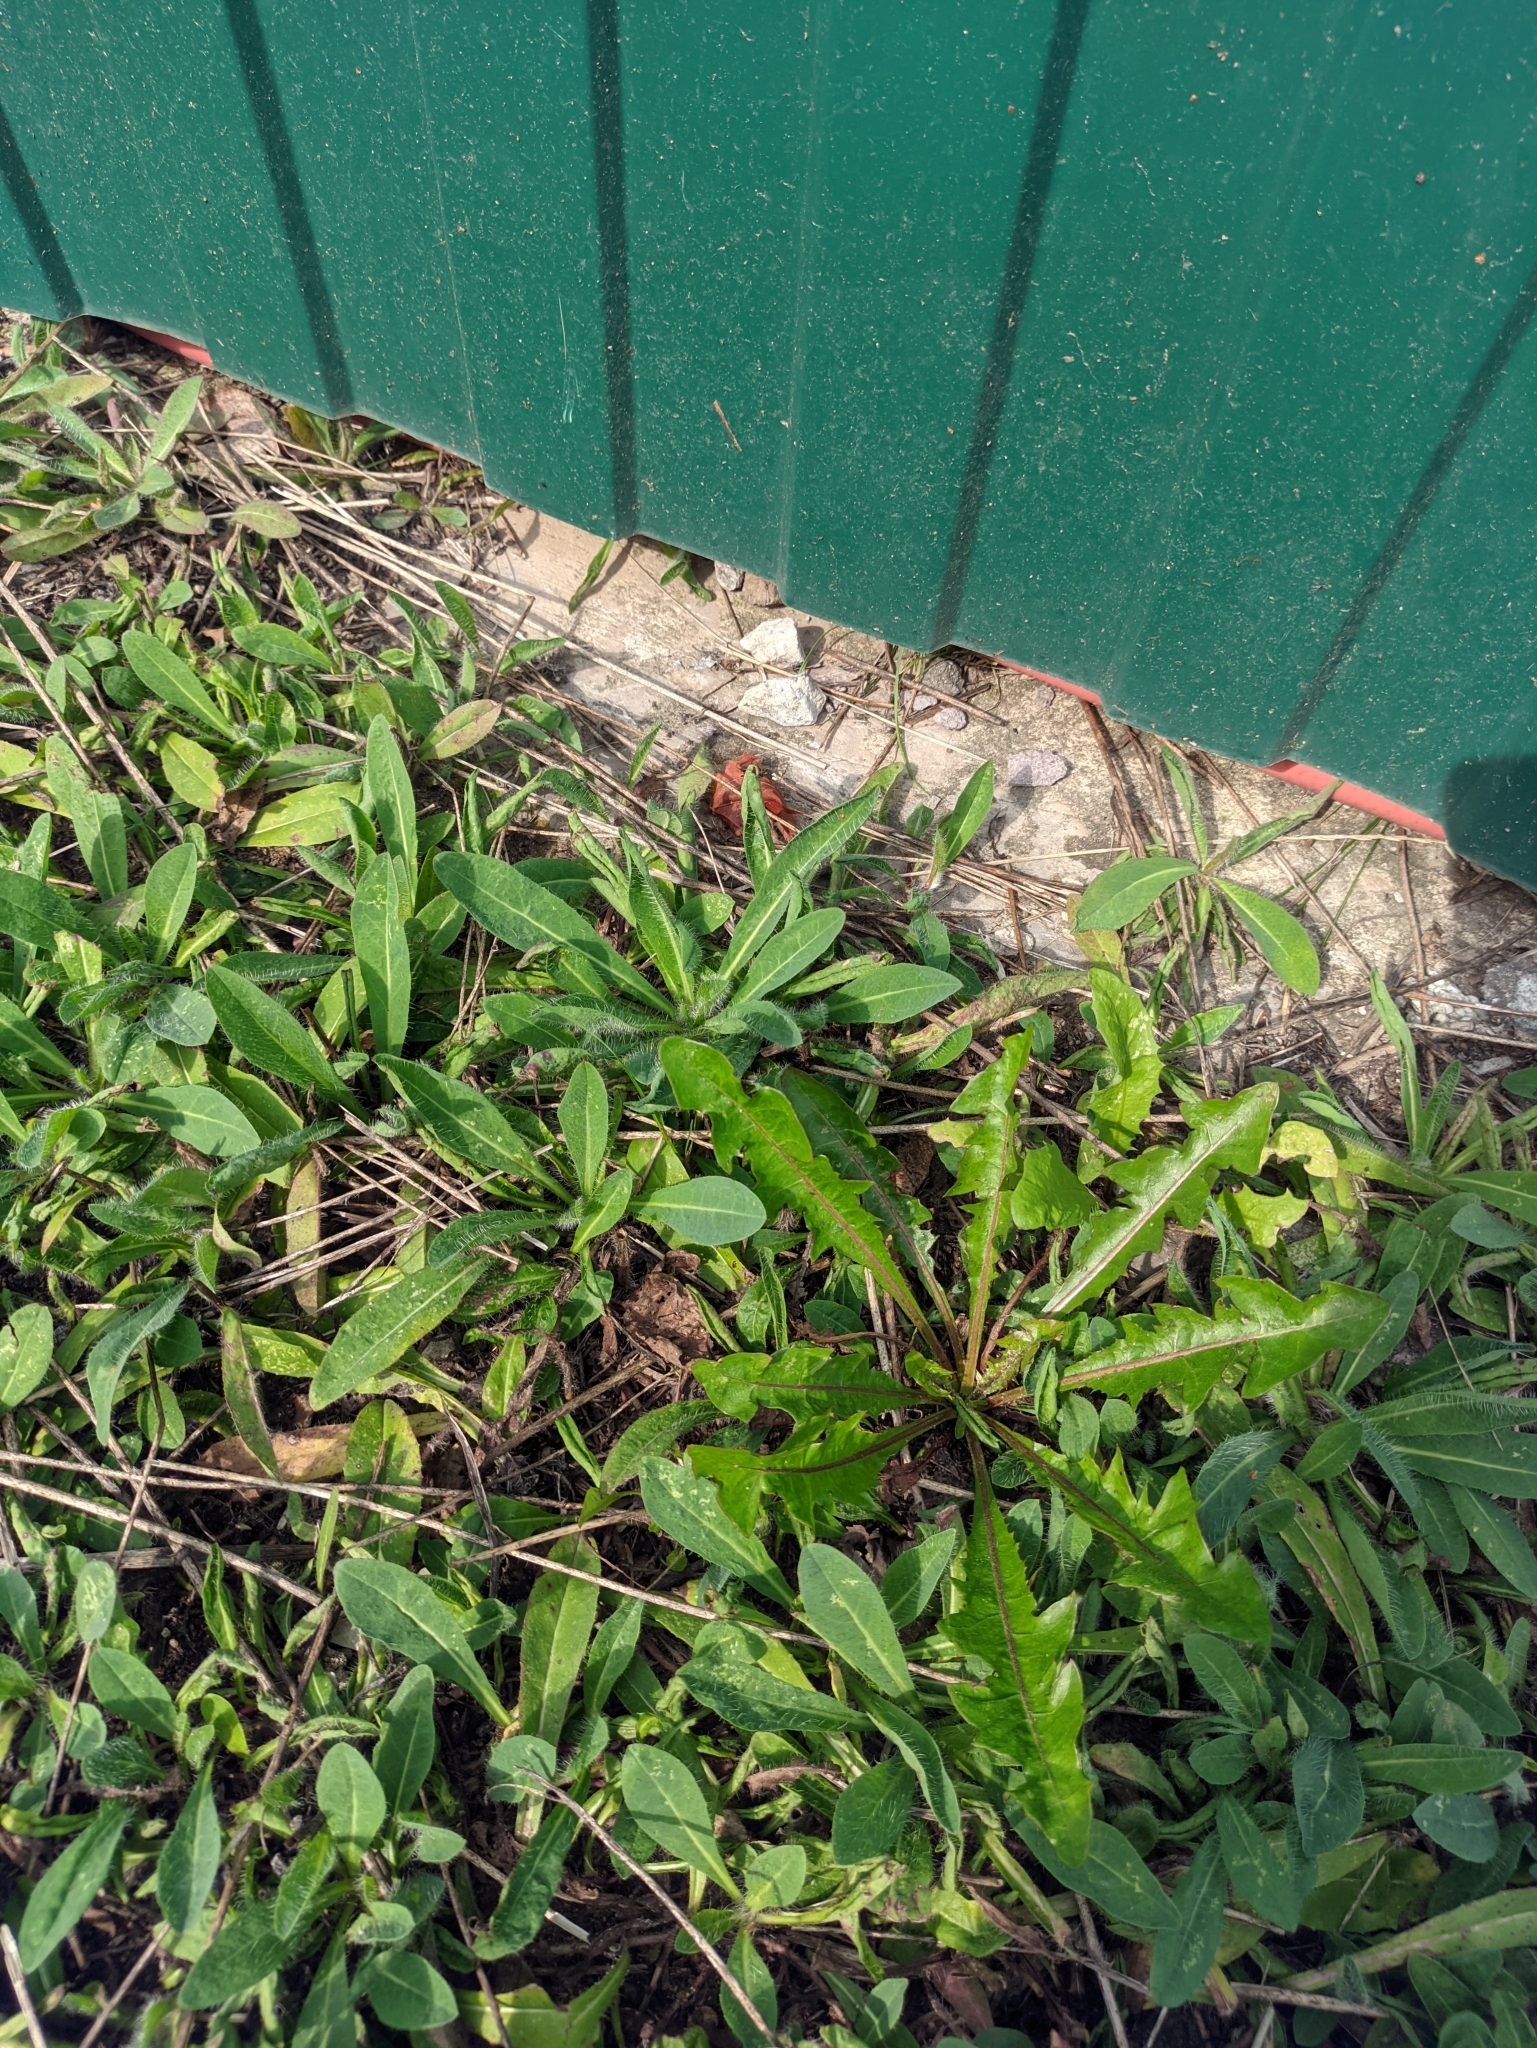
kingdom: Plantae
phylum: Tracheophyta
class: Magnoliopsida
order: Asterales
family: Asteraceae
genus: Pilosella
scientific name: Pilosella officinarum
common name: Mouse-ear hawkweed
